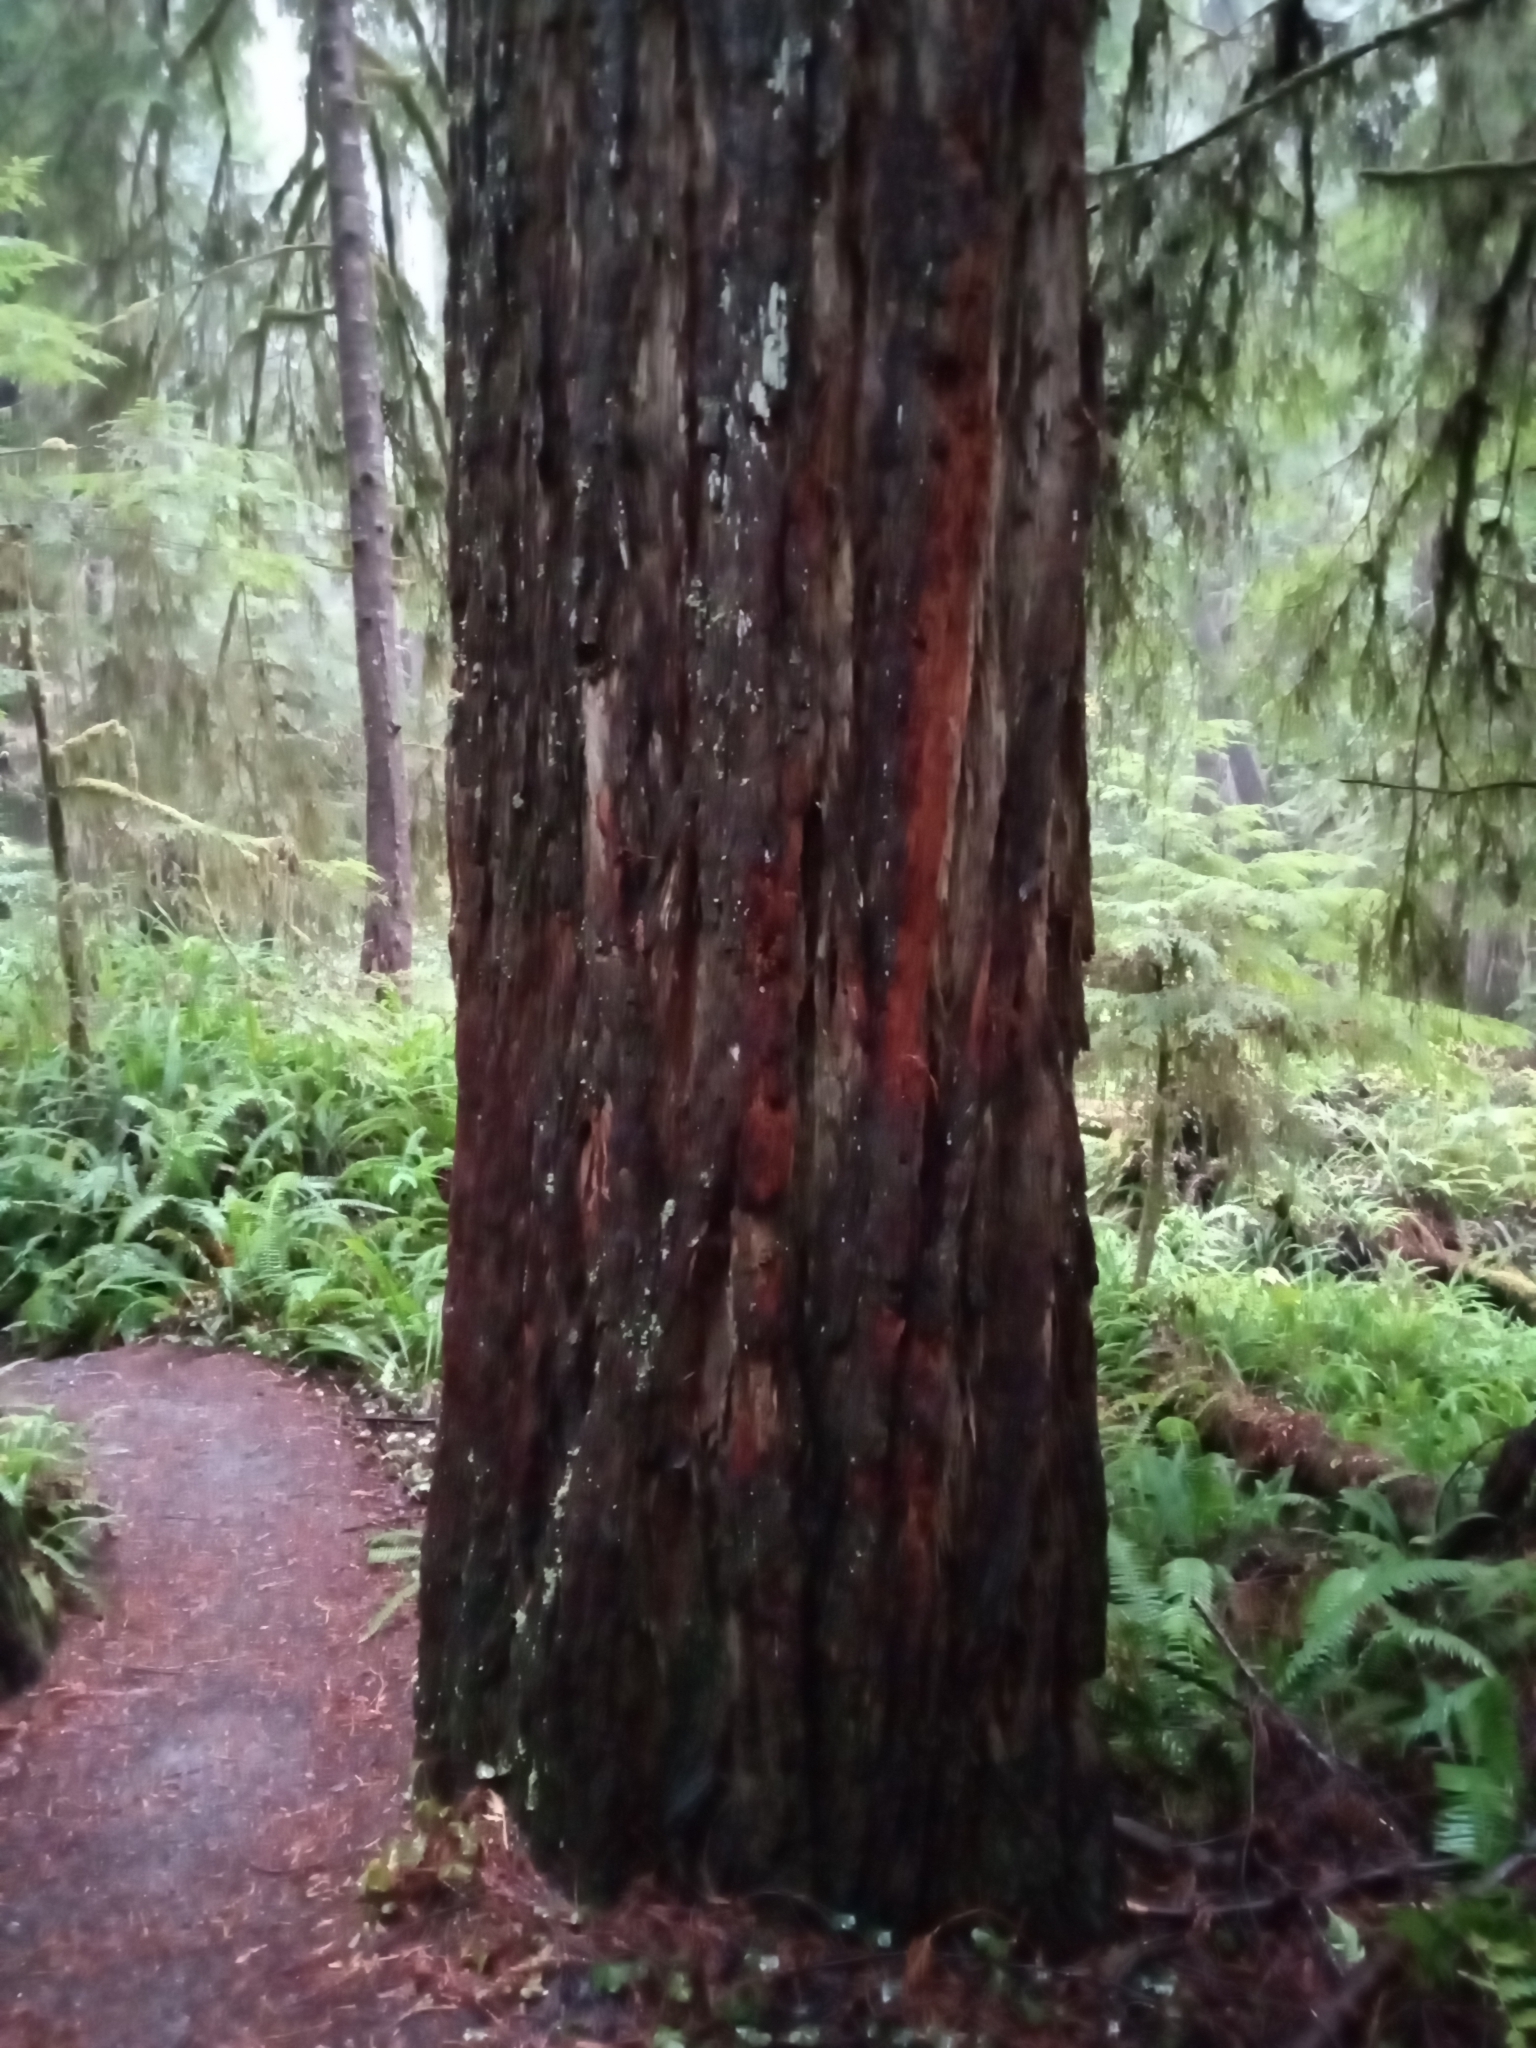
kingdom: Plantae
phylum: Tracheophyta
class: Pinopsida
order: Pinales
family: Cupressaceae
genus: Sequoia
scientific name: Sequoia sempervirens
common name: Coast redwood
